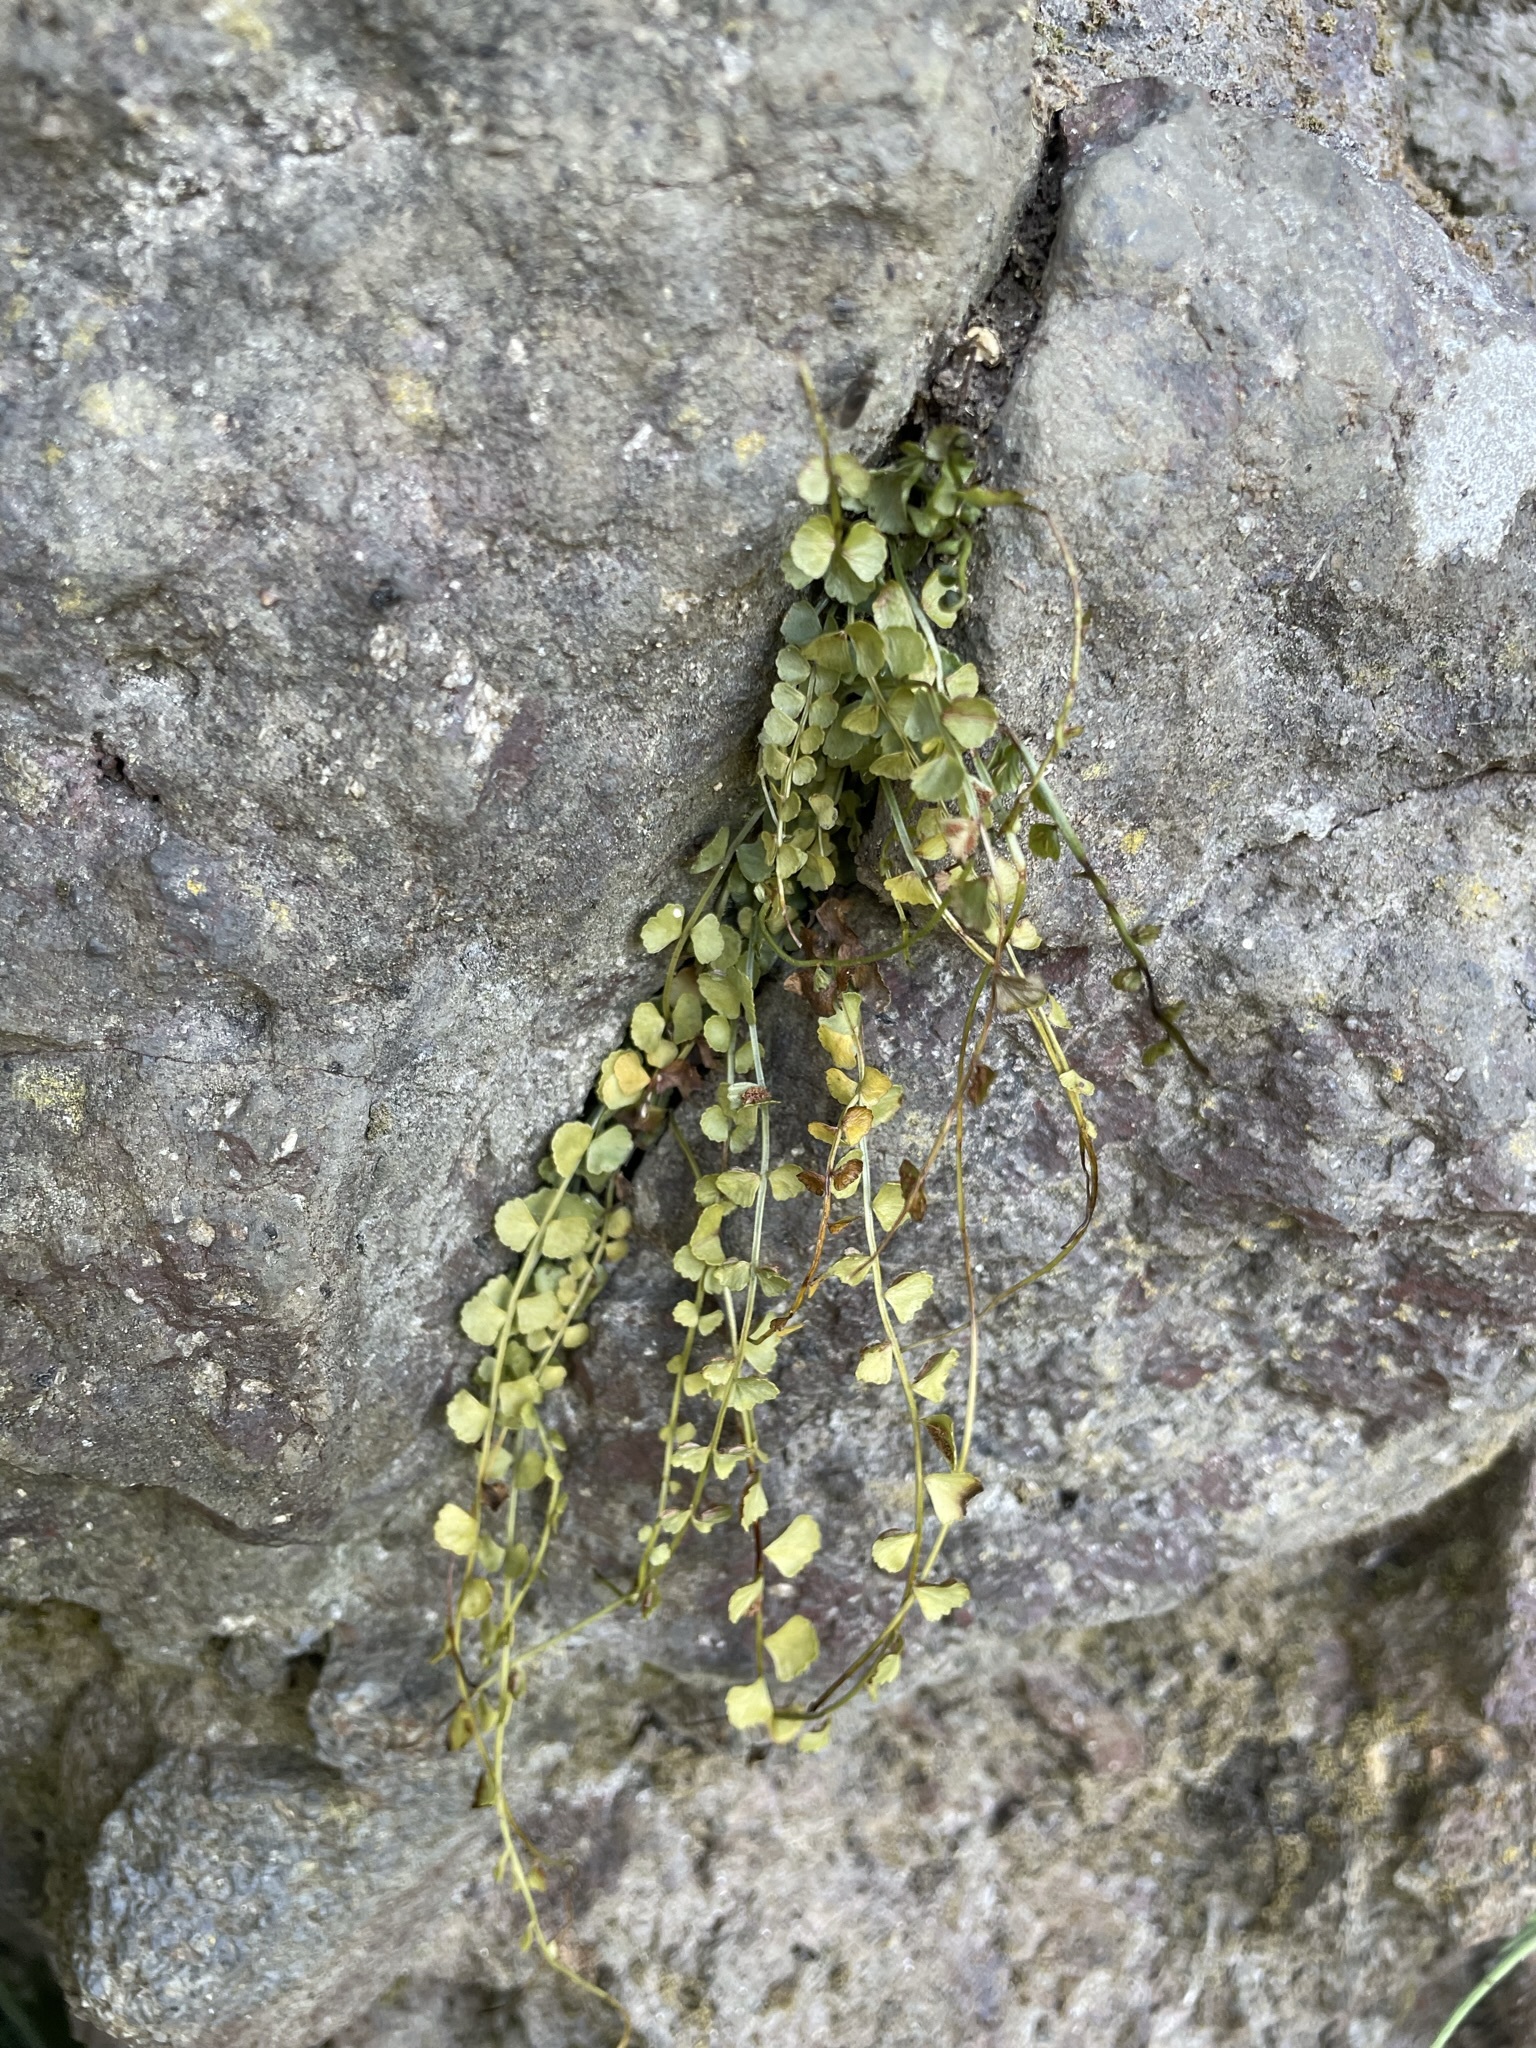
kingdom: Plantae
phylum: Tracheophyta
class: Polypodiopsida
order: Polypodiales
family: Aspleniaceae
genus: Asplenium
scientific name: Asplenium flabellifolium
